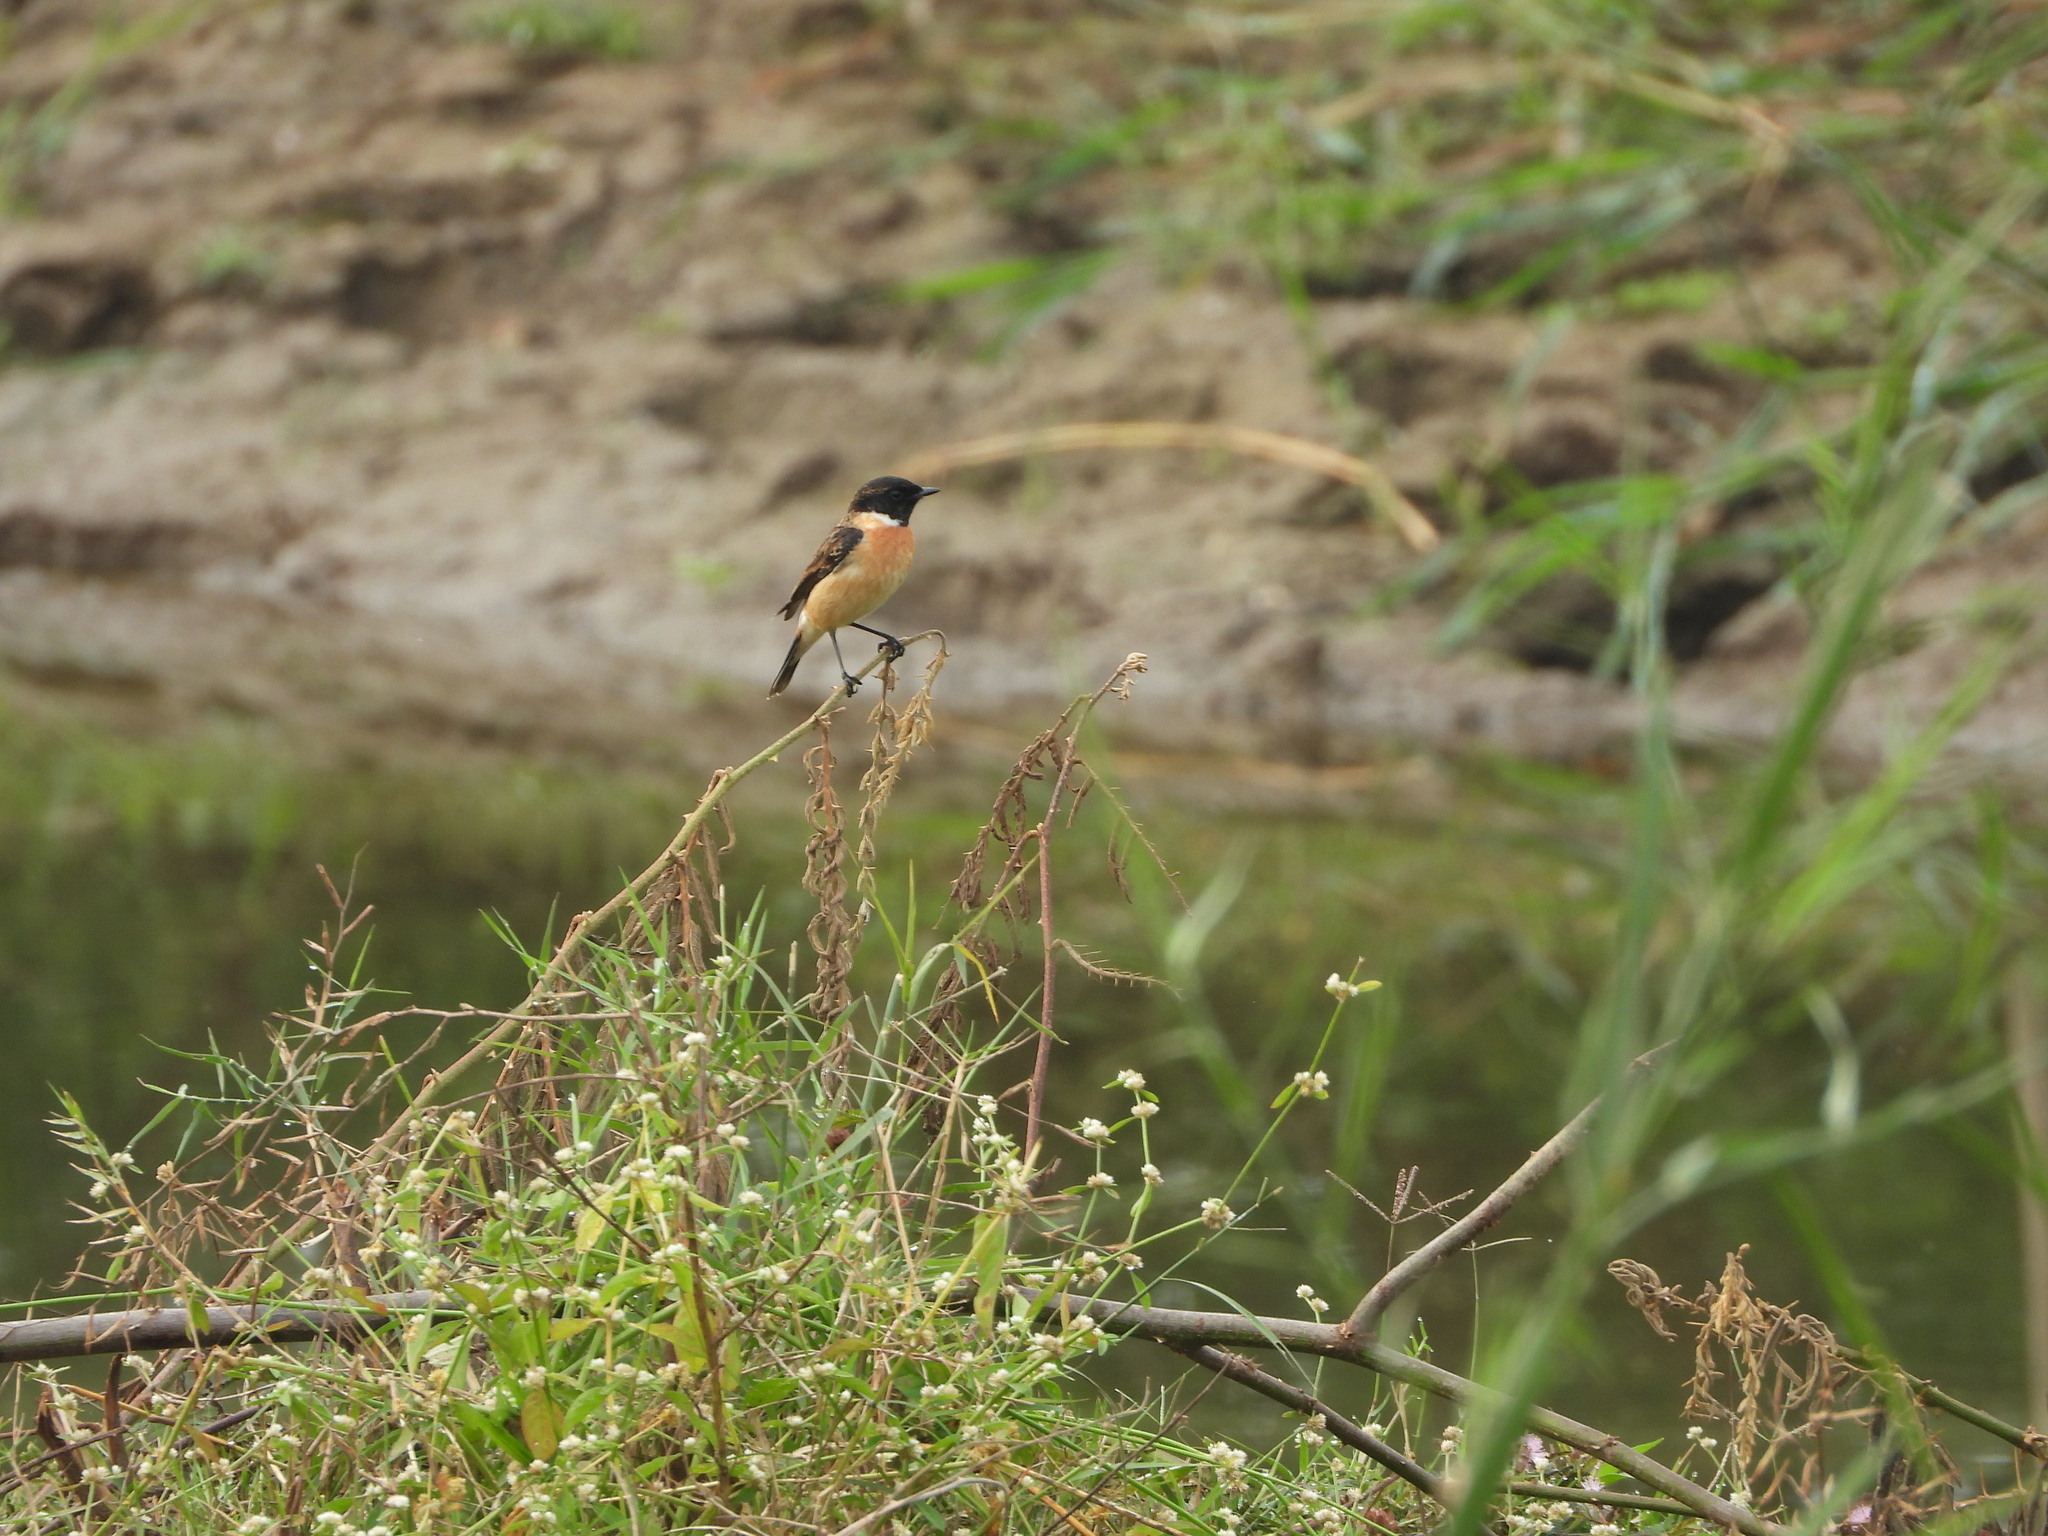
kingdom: Animalia
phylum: Chordata
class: Aves
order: Passeriformes
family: Muscicapidae
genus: Saxicola
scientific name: Saxicola stejnegeri
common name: Stejneger's stonechat
